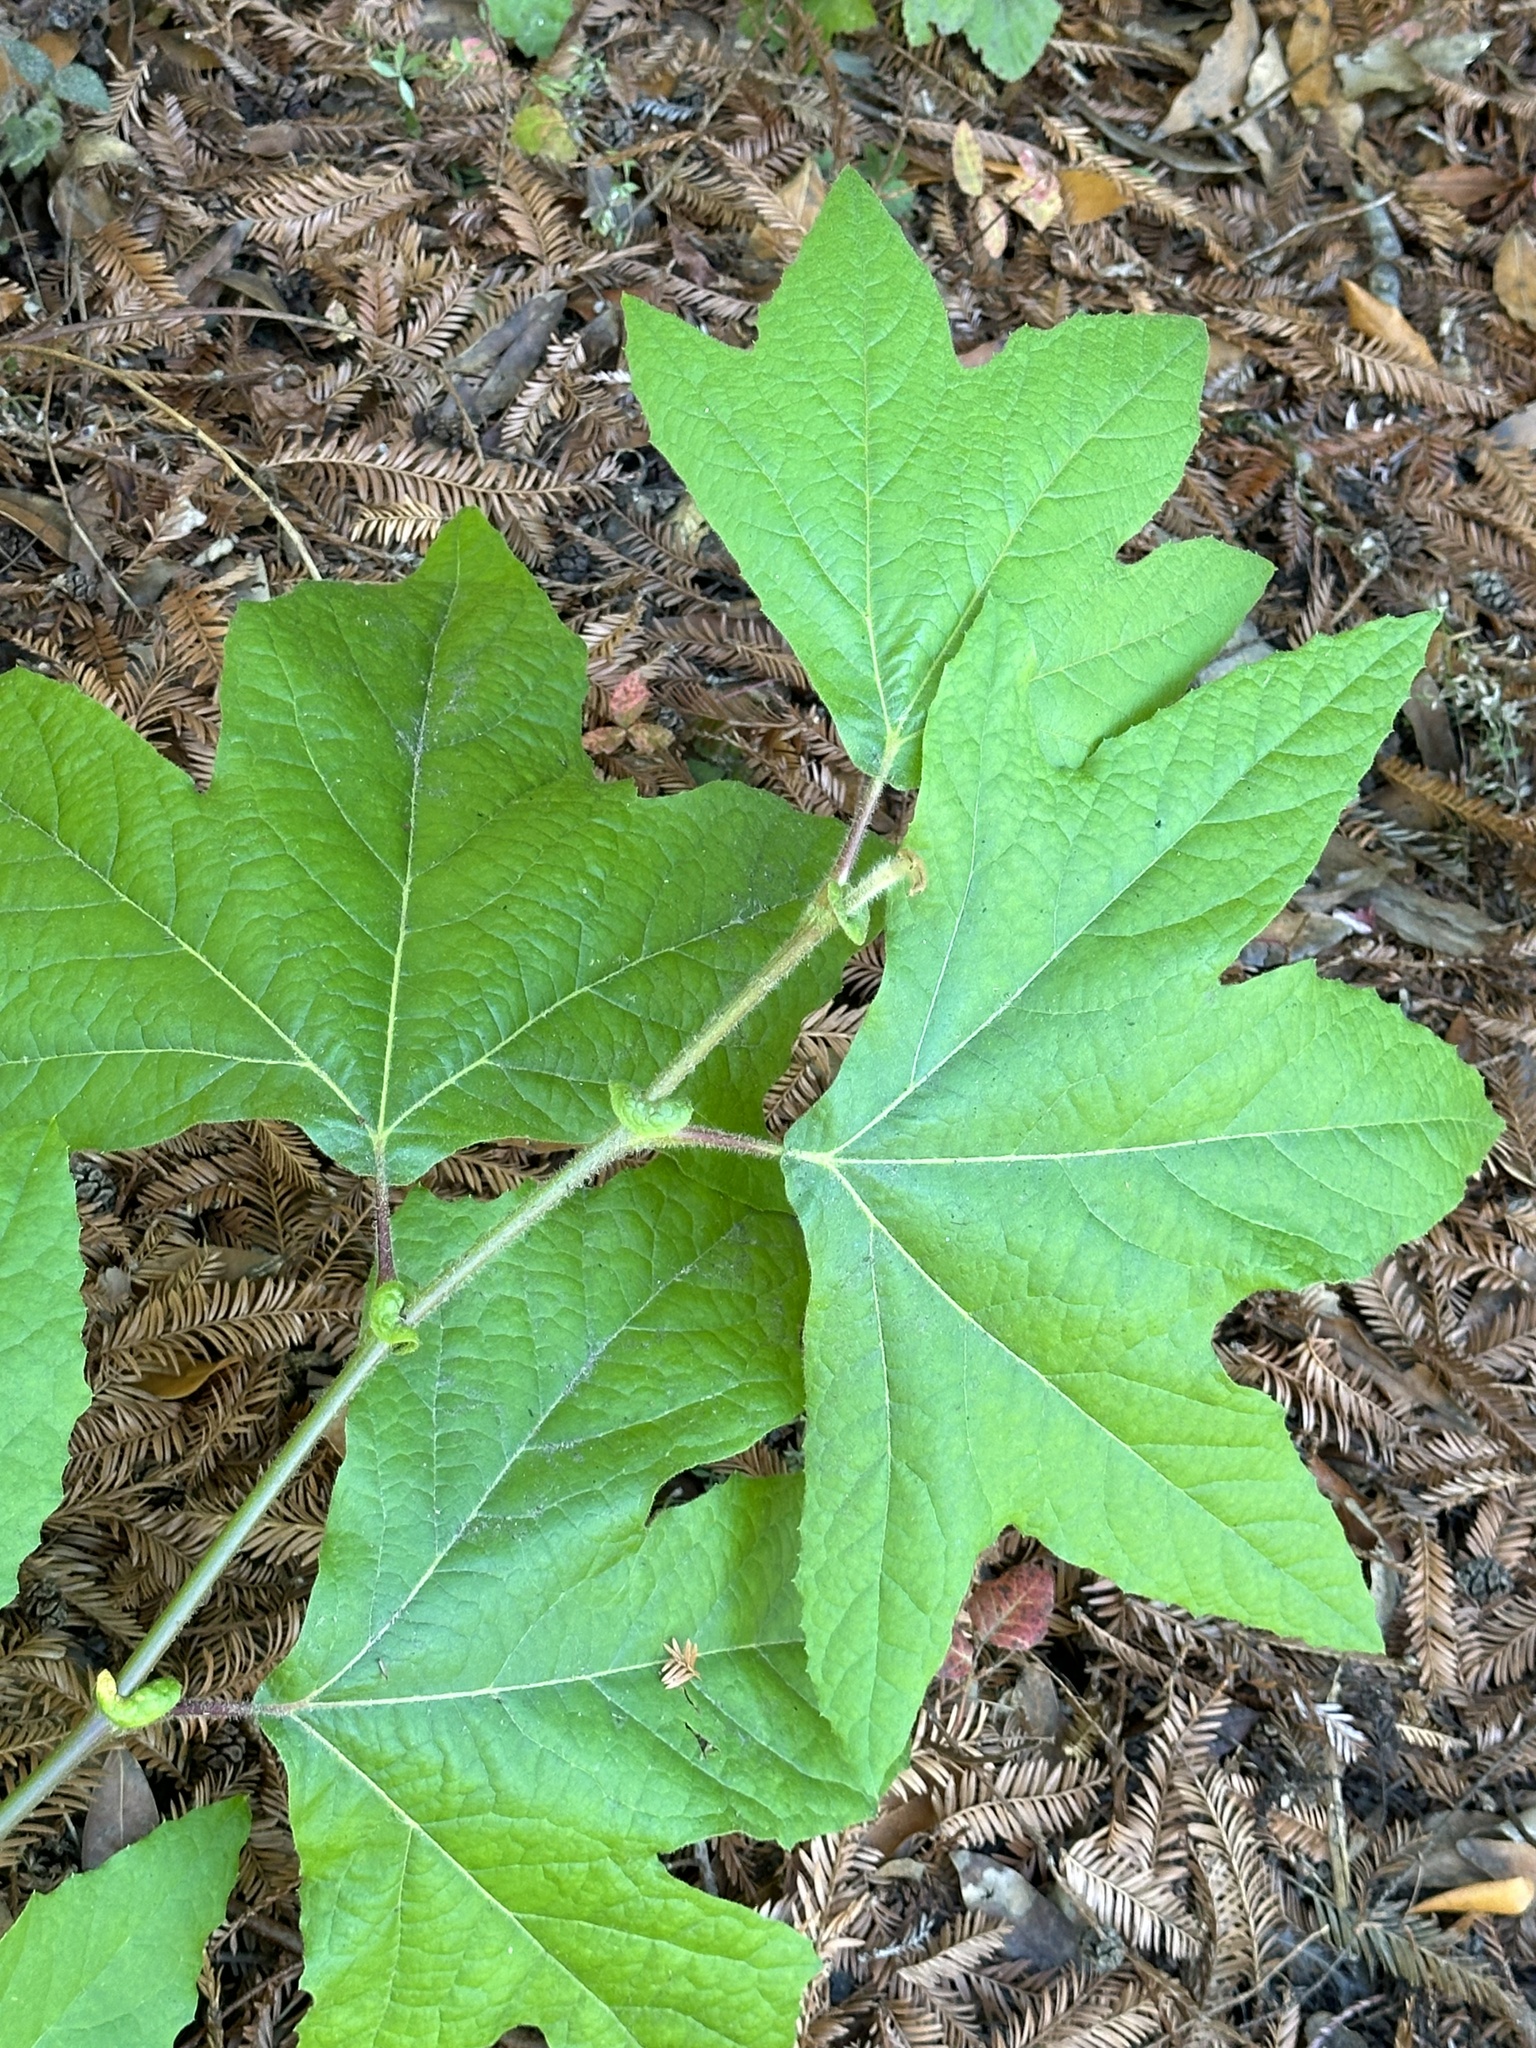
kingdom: Plantae
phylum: Tracheophyta
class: Magnoliopsida
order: Proteales
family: Platanaceae
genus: Platanus
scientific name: Platanus racemosa
